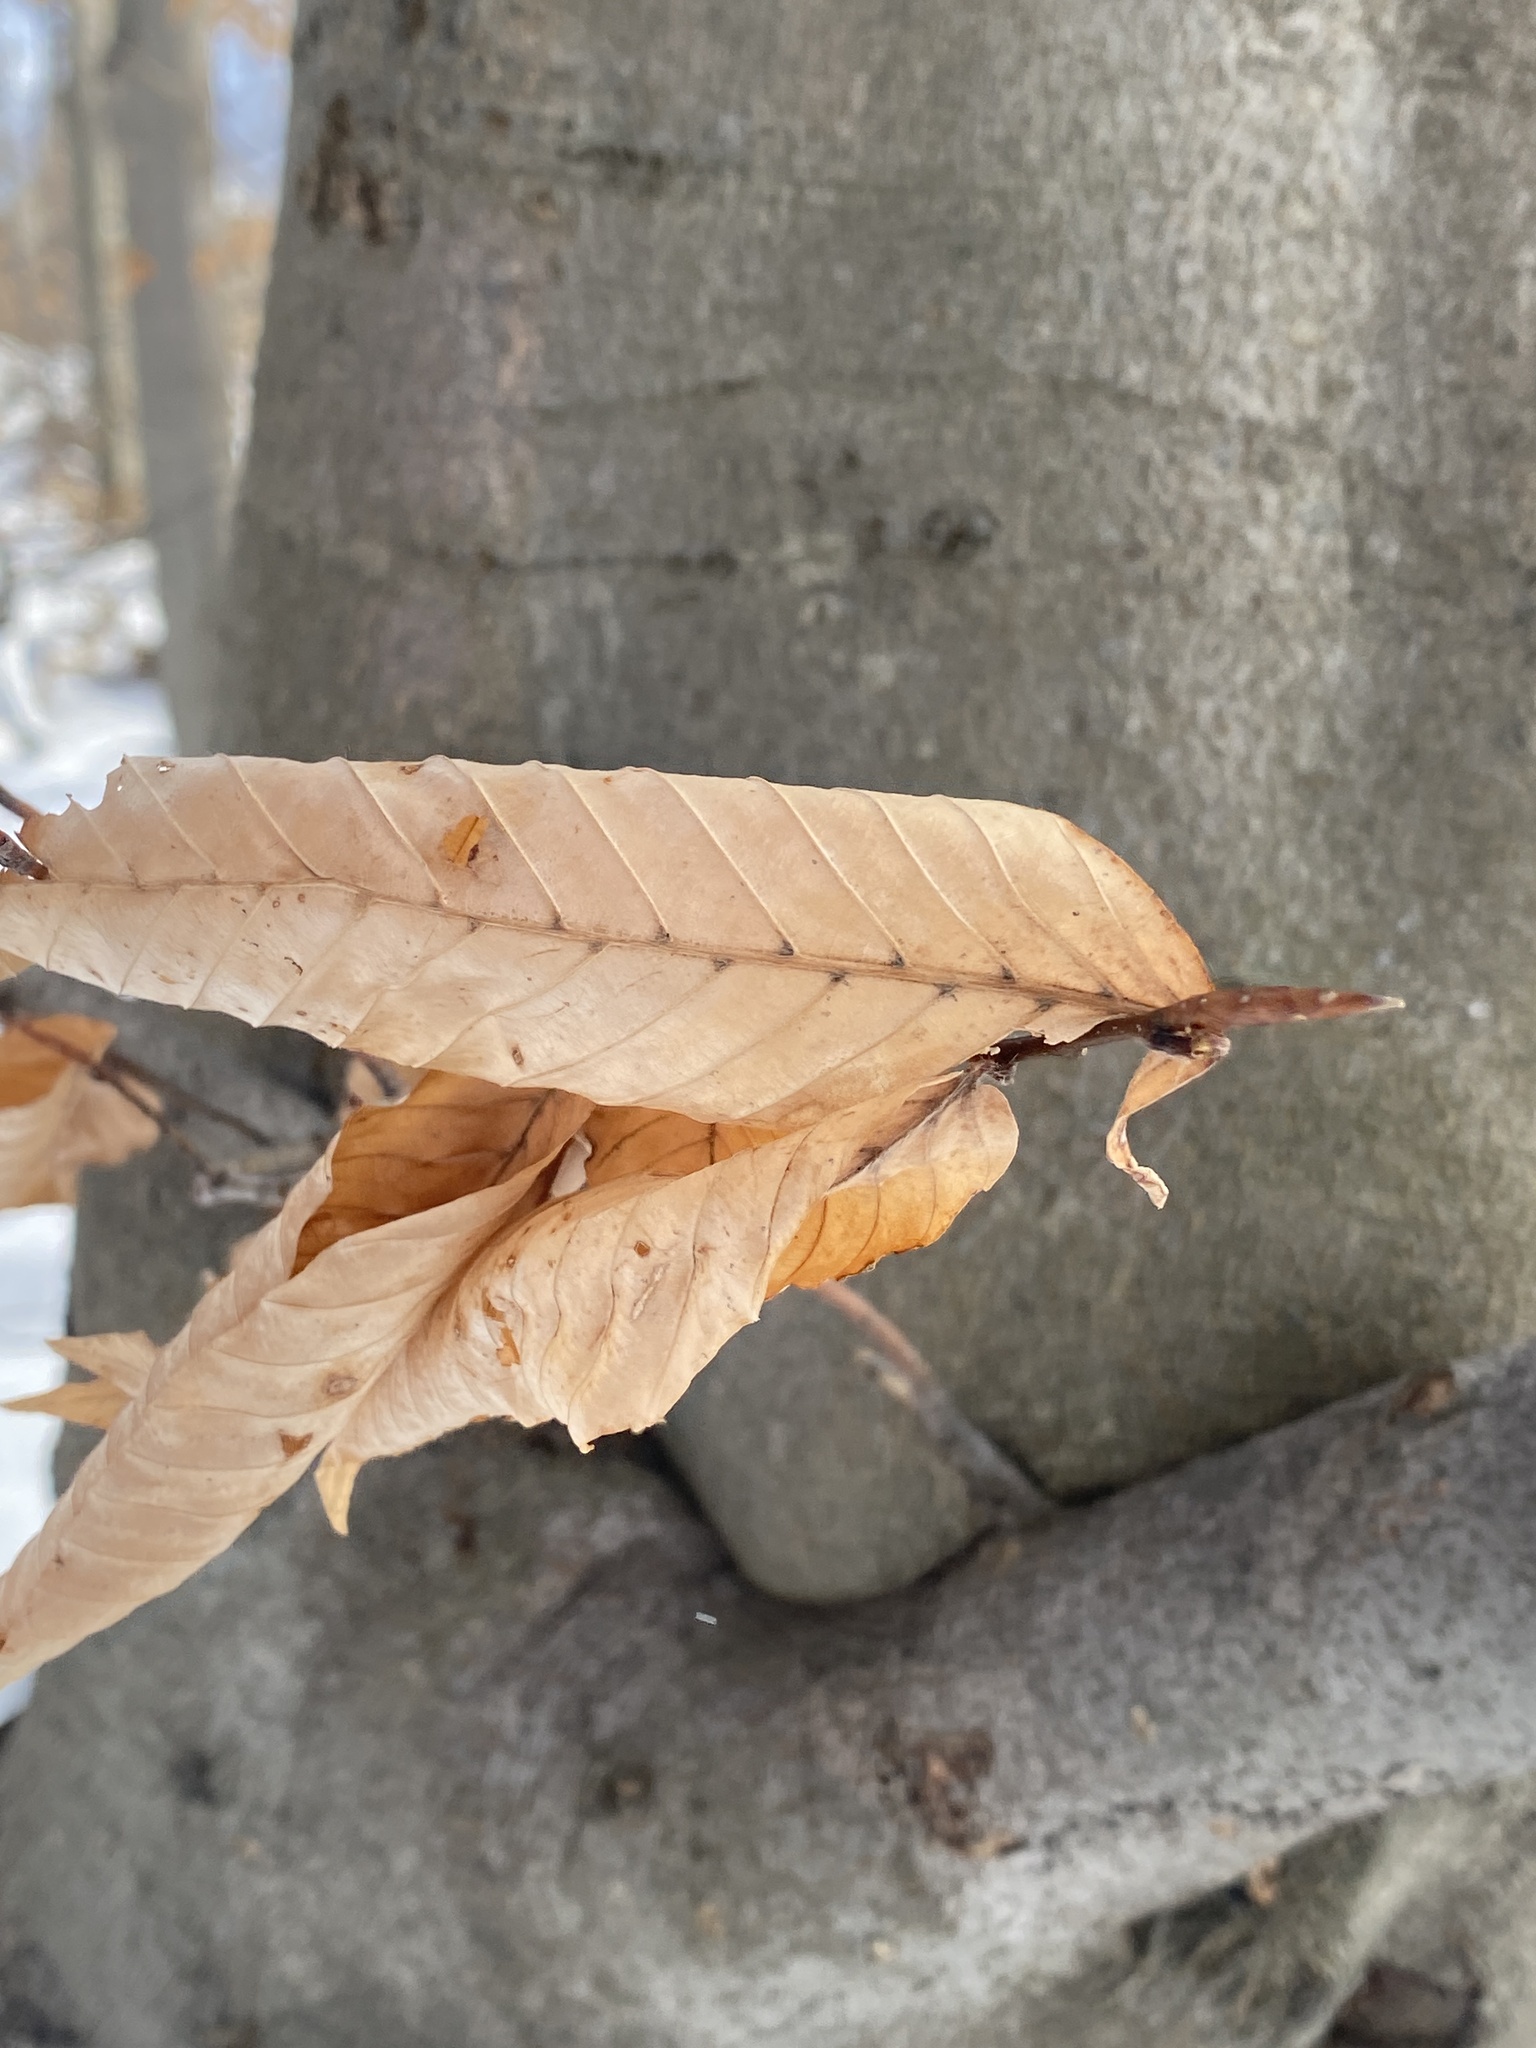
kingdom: Plantae
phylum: Tracheophyta
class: Magnoliopsida
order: Fagales
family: Fagaceae
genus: Fagus
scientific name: Fagus grandifolia
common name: American beech
